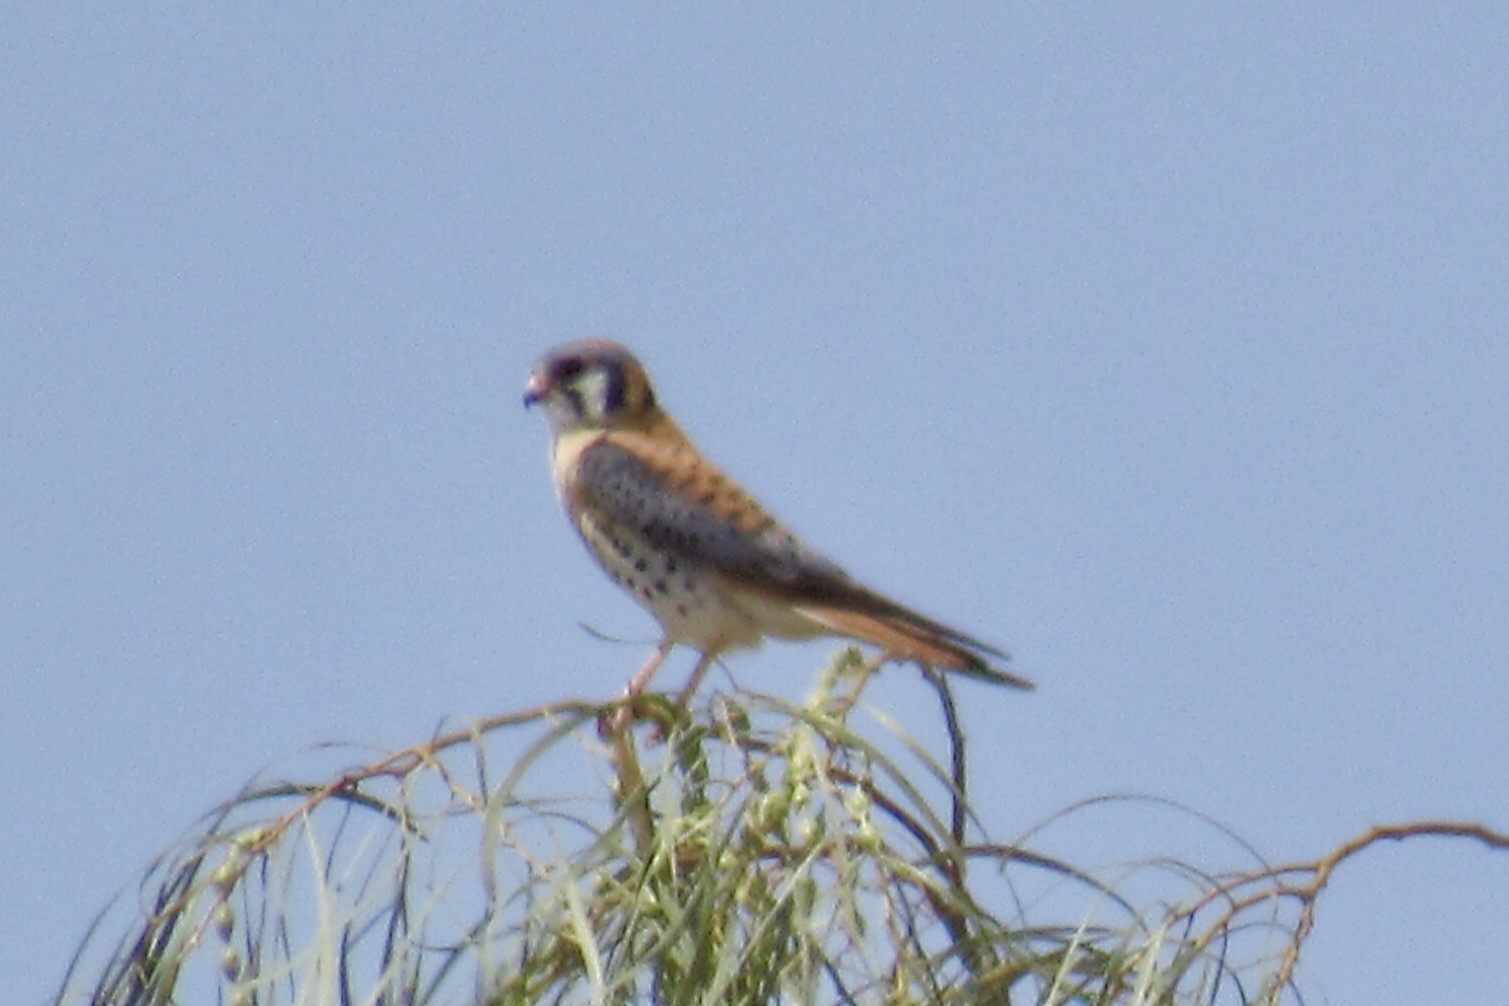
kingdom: Animalia
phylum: Chordata
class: Aves
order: Falconiformes
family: Falconidae
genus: Falco
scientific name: Falco sparverius
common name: American kestrel
